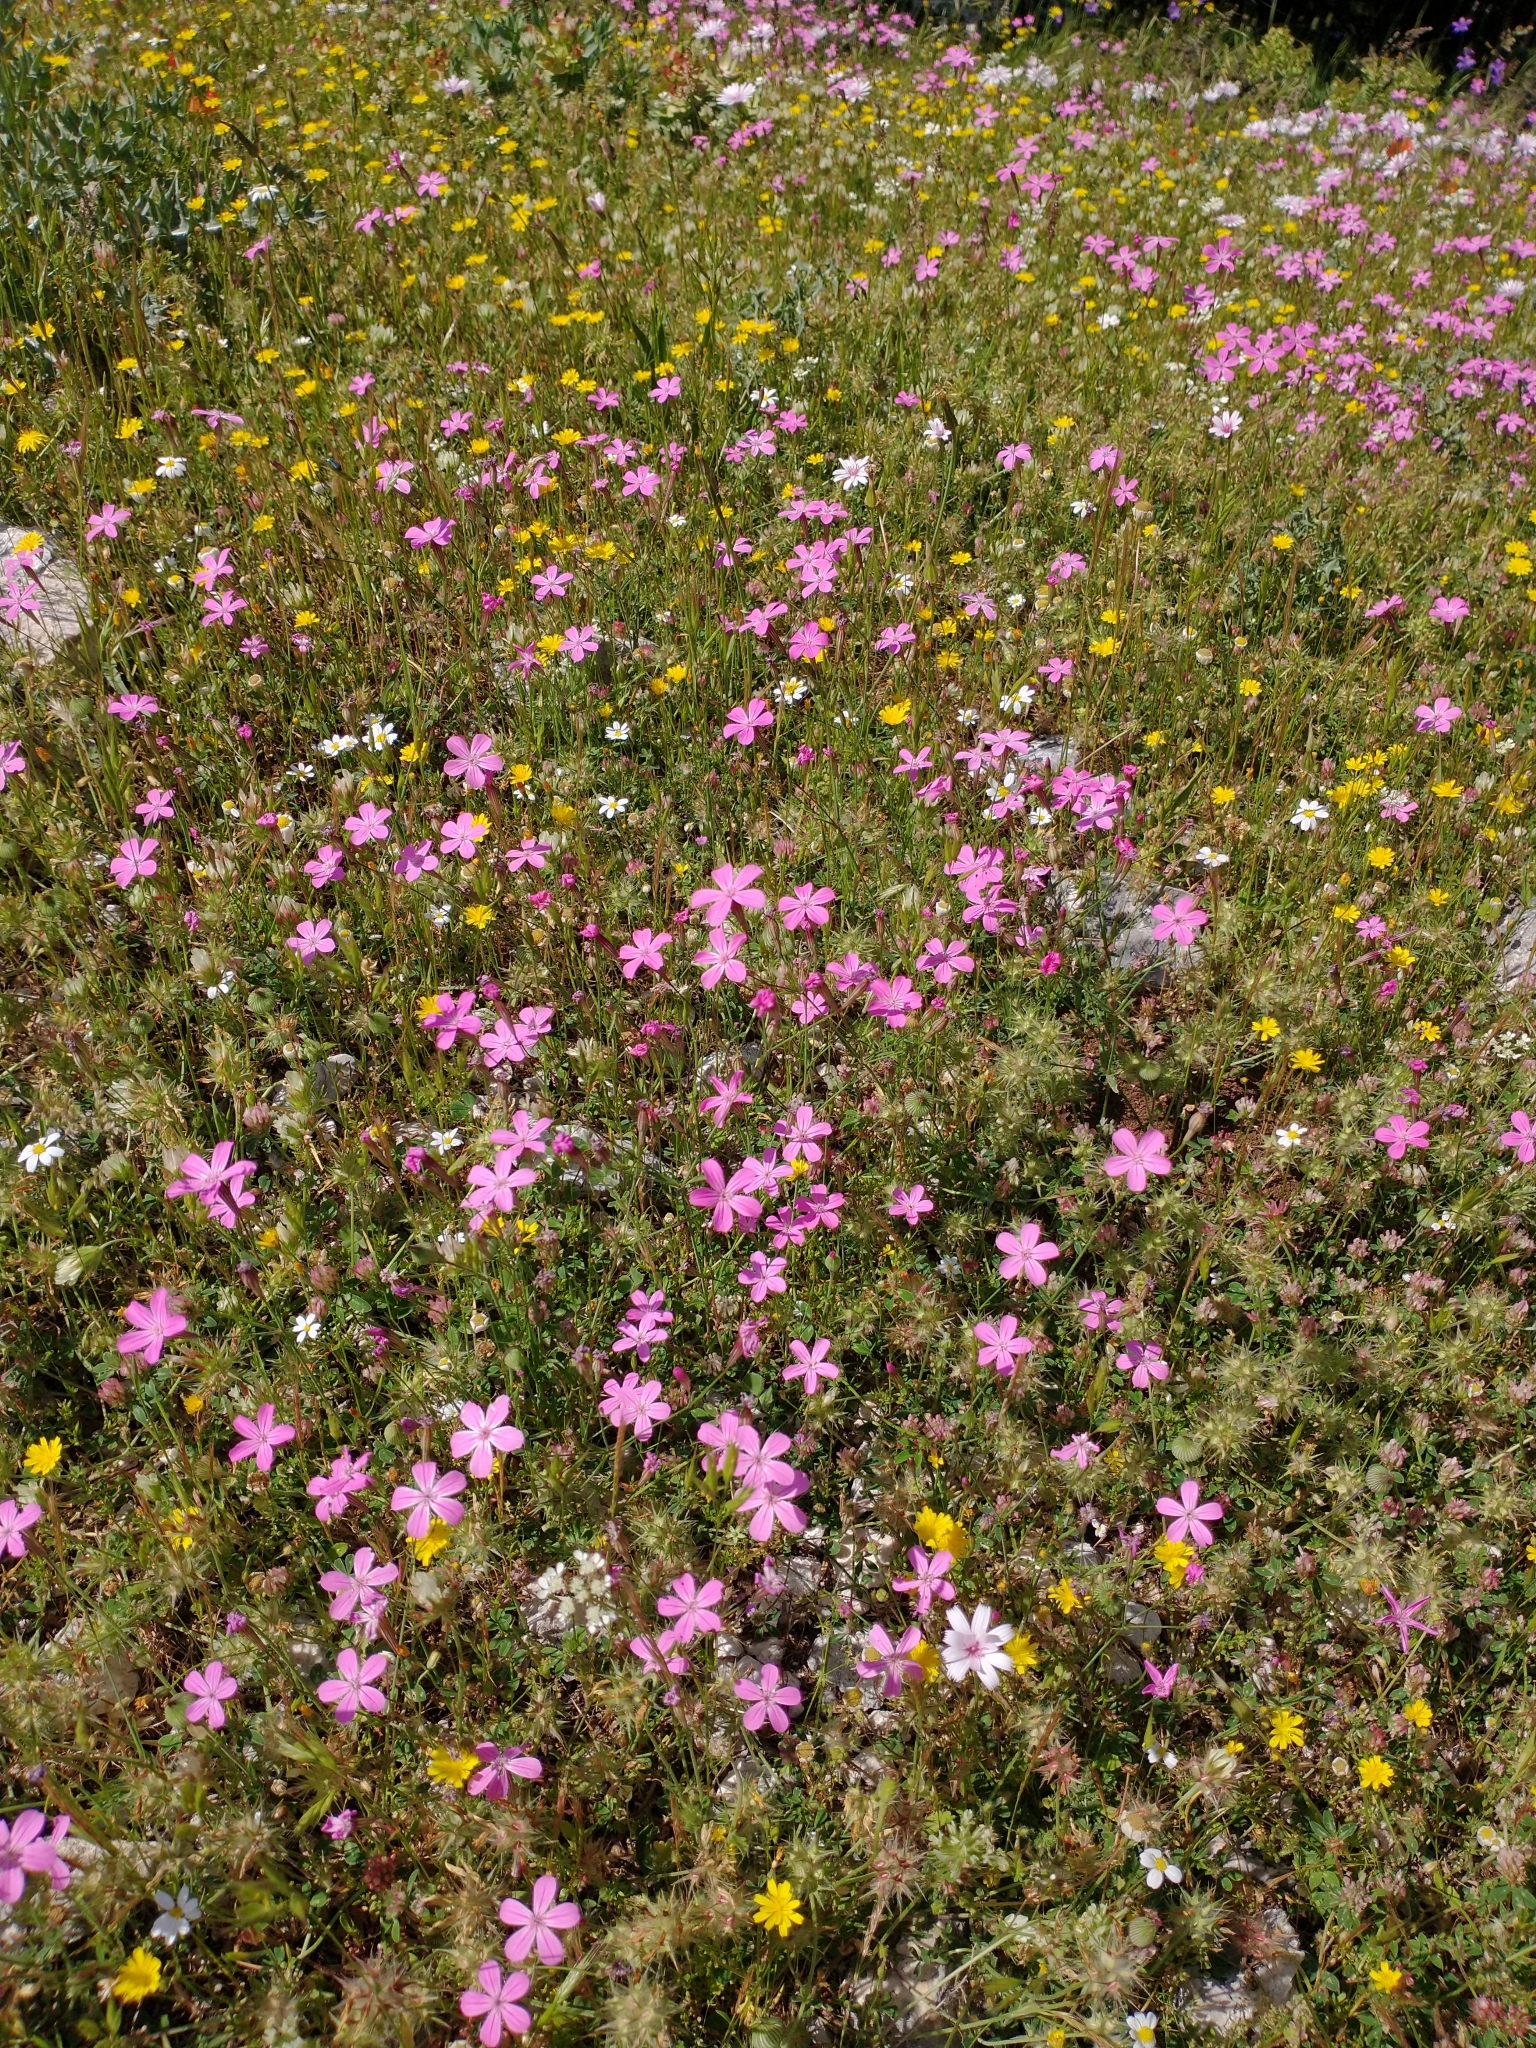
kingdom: Plantae
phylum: Tracheophyta
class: Magnoliopsida
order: Caryophyllales
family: Caryophyllaceae
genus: Silene
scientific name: Silene ungeri
